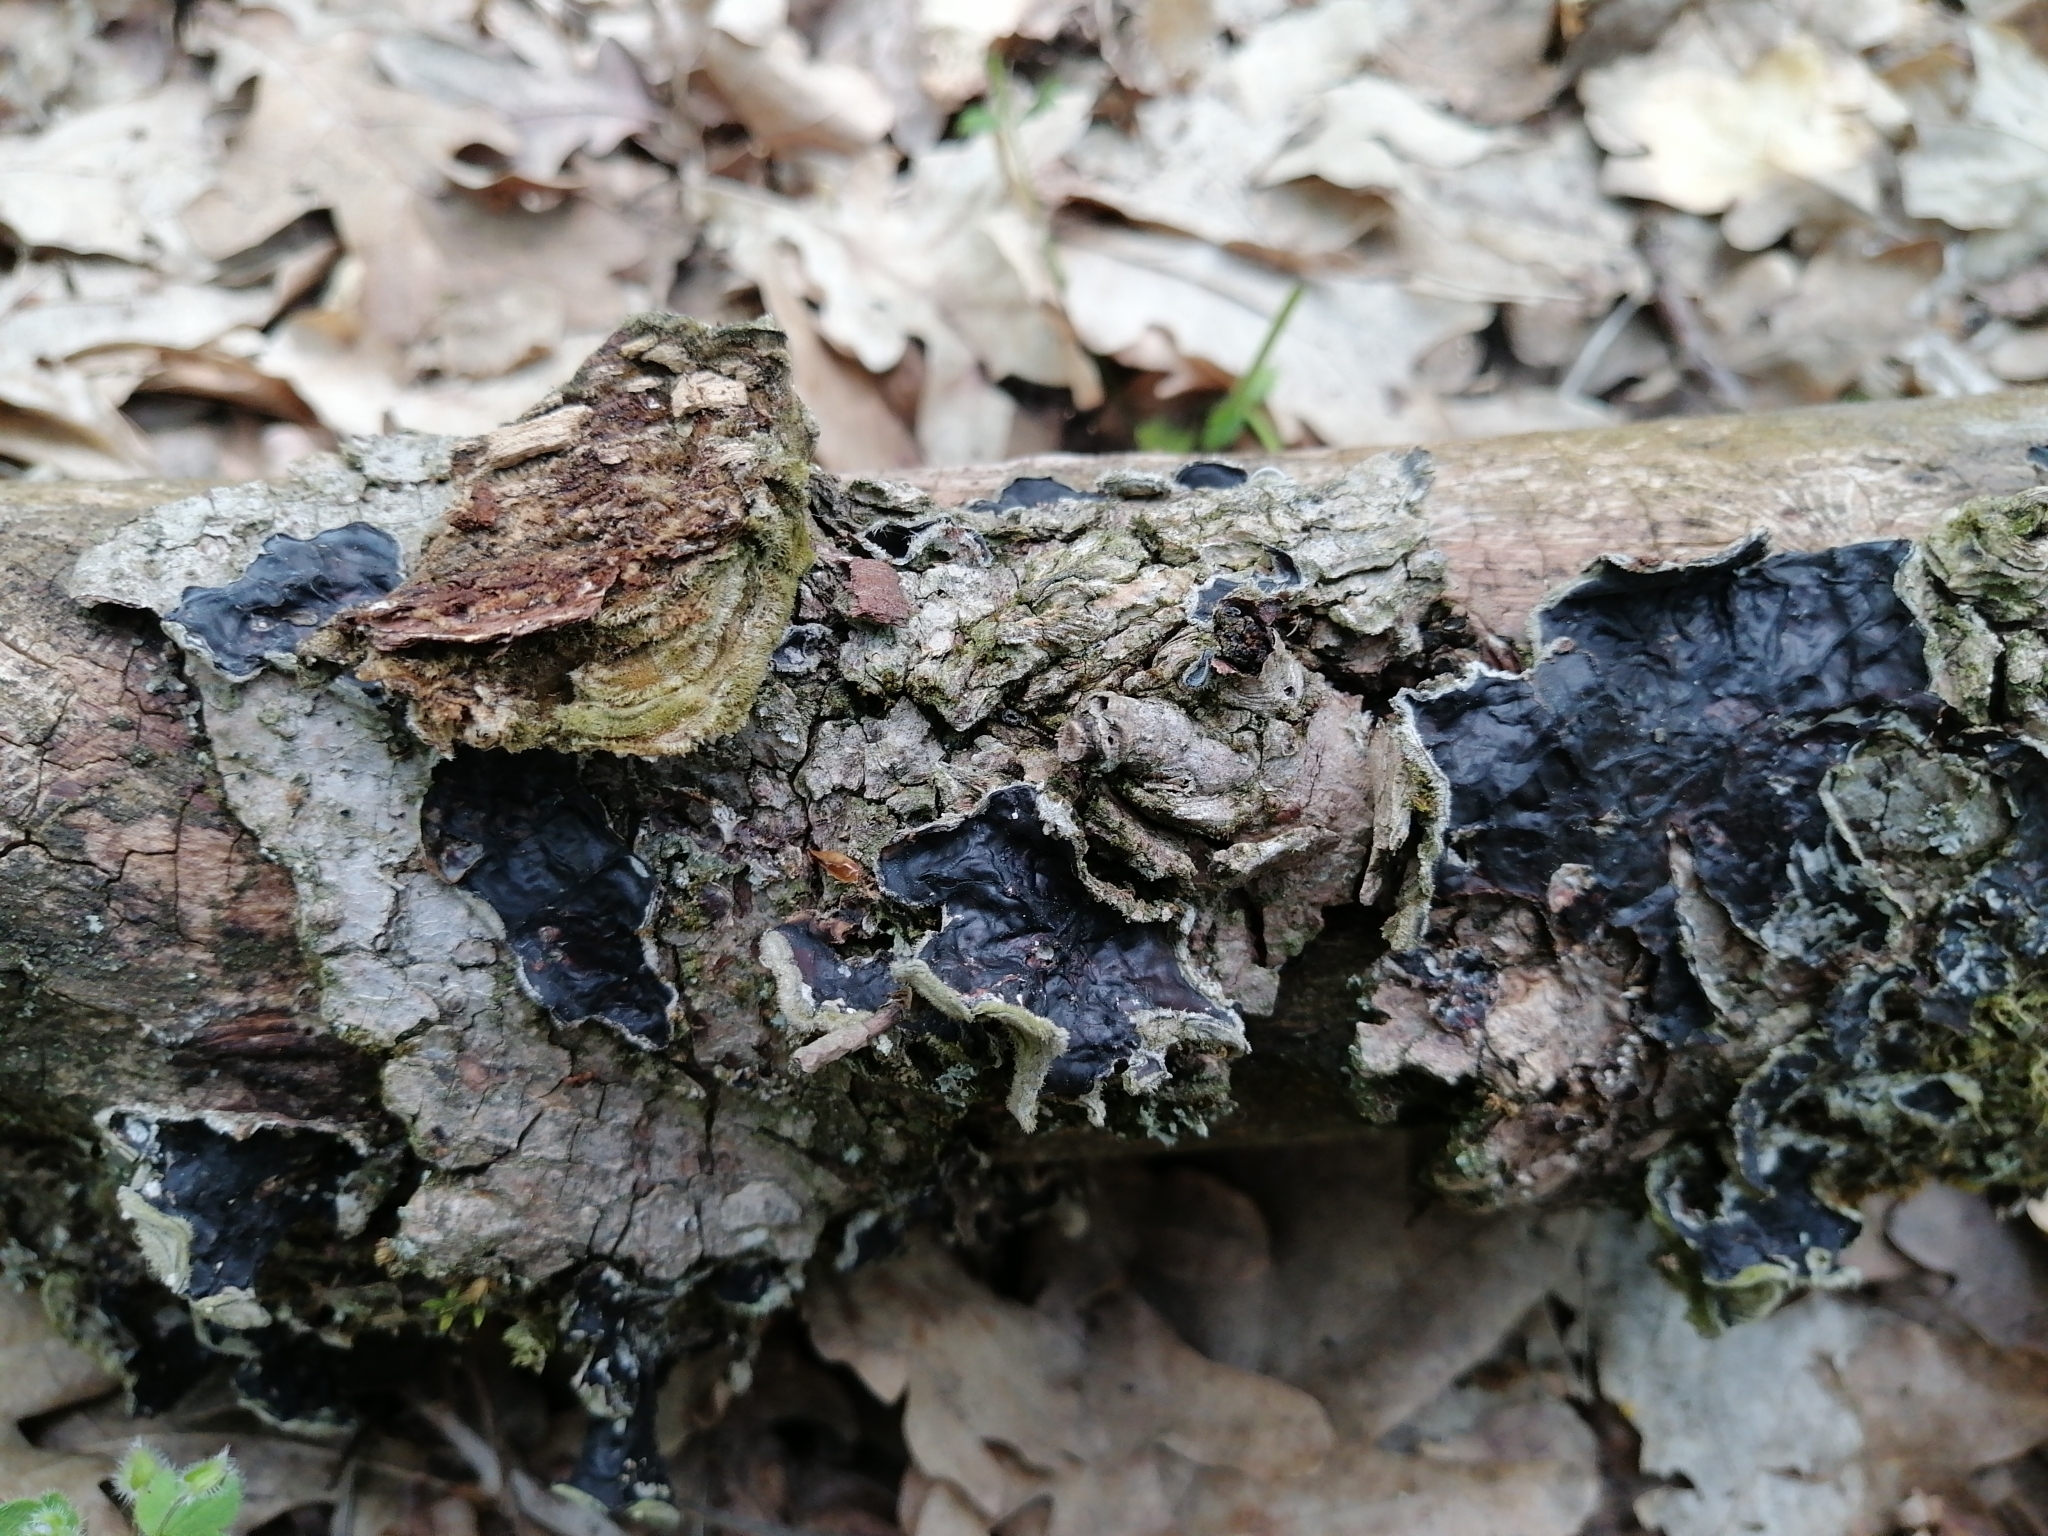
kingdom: Fungi
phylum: Basidiomycota
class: Agaricomycetes
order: Auriculariales
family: Auriculariaceae
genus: Auricularia
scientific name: Auricularia mesenterica
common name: Tripe fungus
